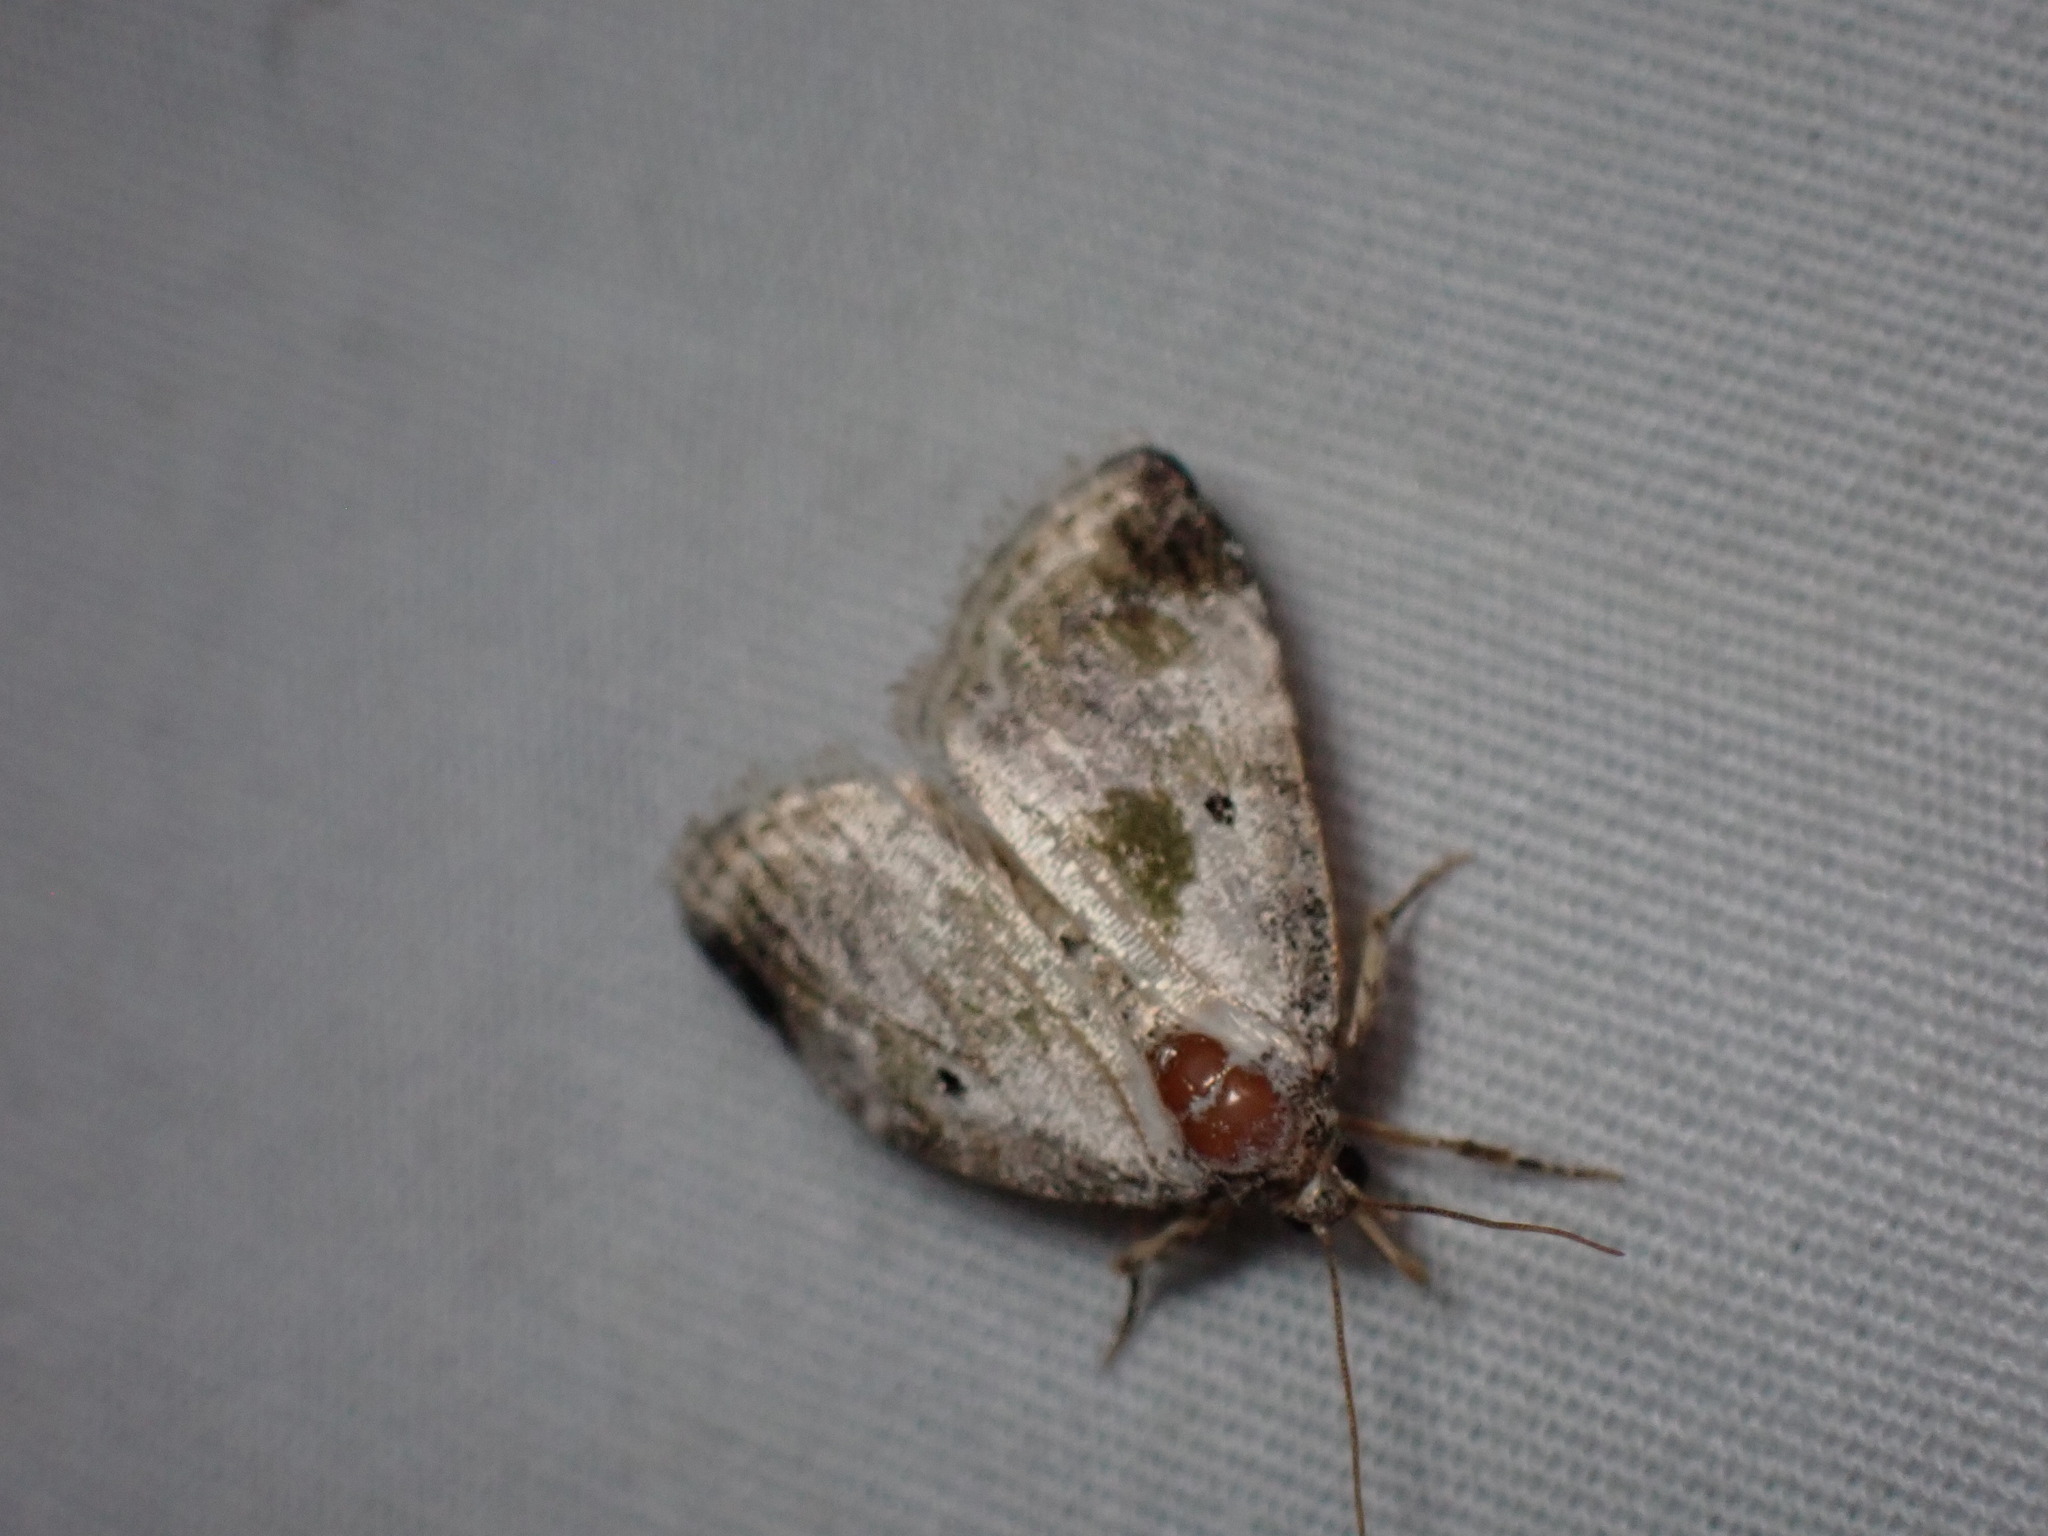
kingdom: Animalia
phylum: Arthropoda
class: Insecta
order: Lepidoptera
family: Noctuidae
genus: Maliattha
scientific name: Maliattha synochitis
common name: Black-dotted glyph
